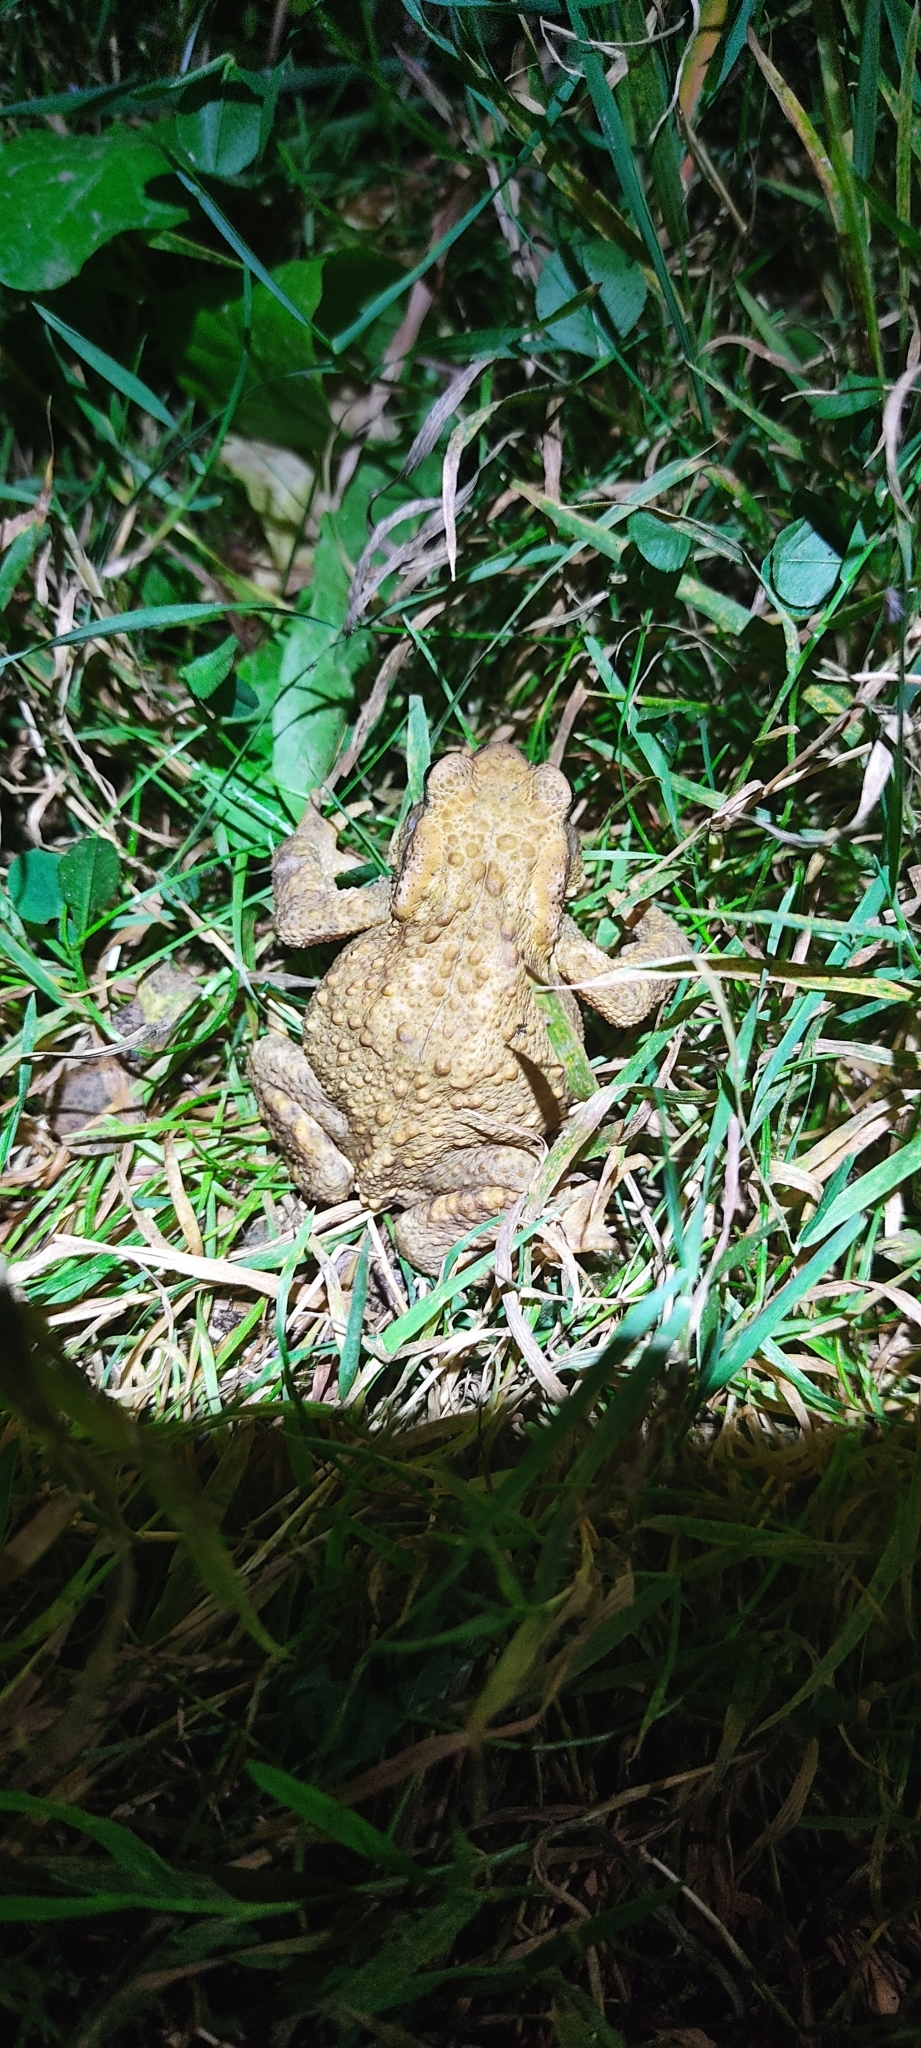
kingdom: Animalia
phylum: Chordata
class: Amphibia
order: Anura
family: Bufonidae
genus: Bufo
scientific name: Bufo spinosus
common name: Western common toad
